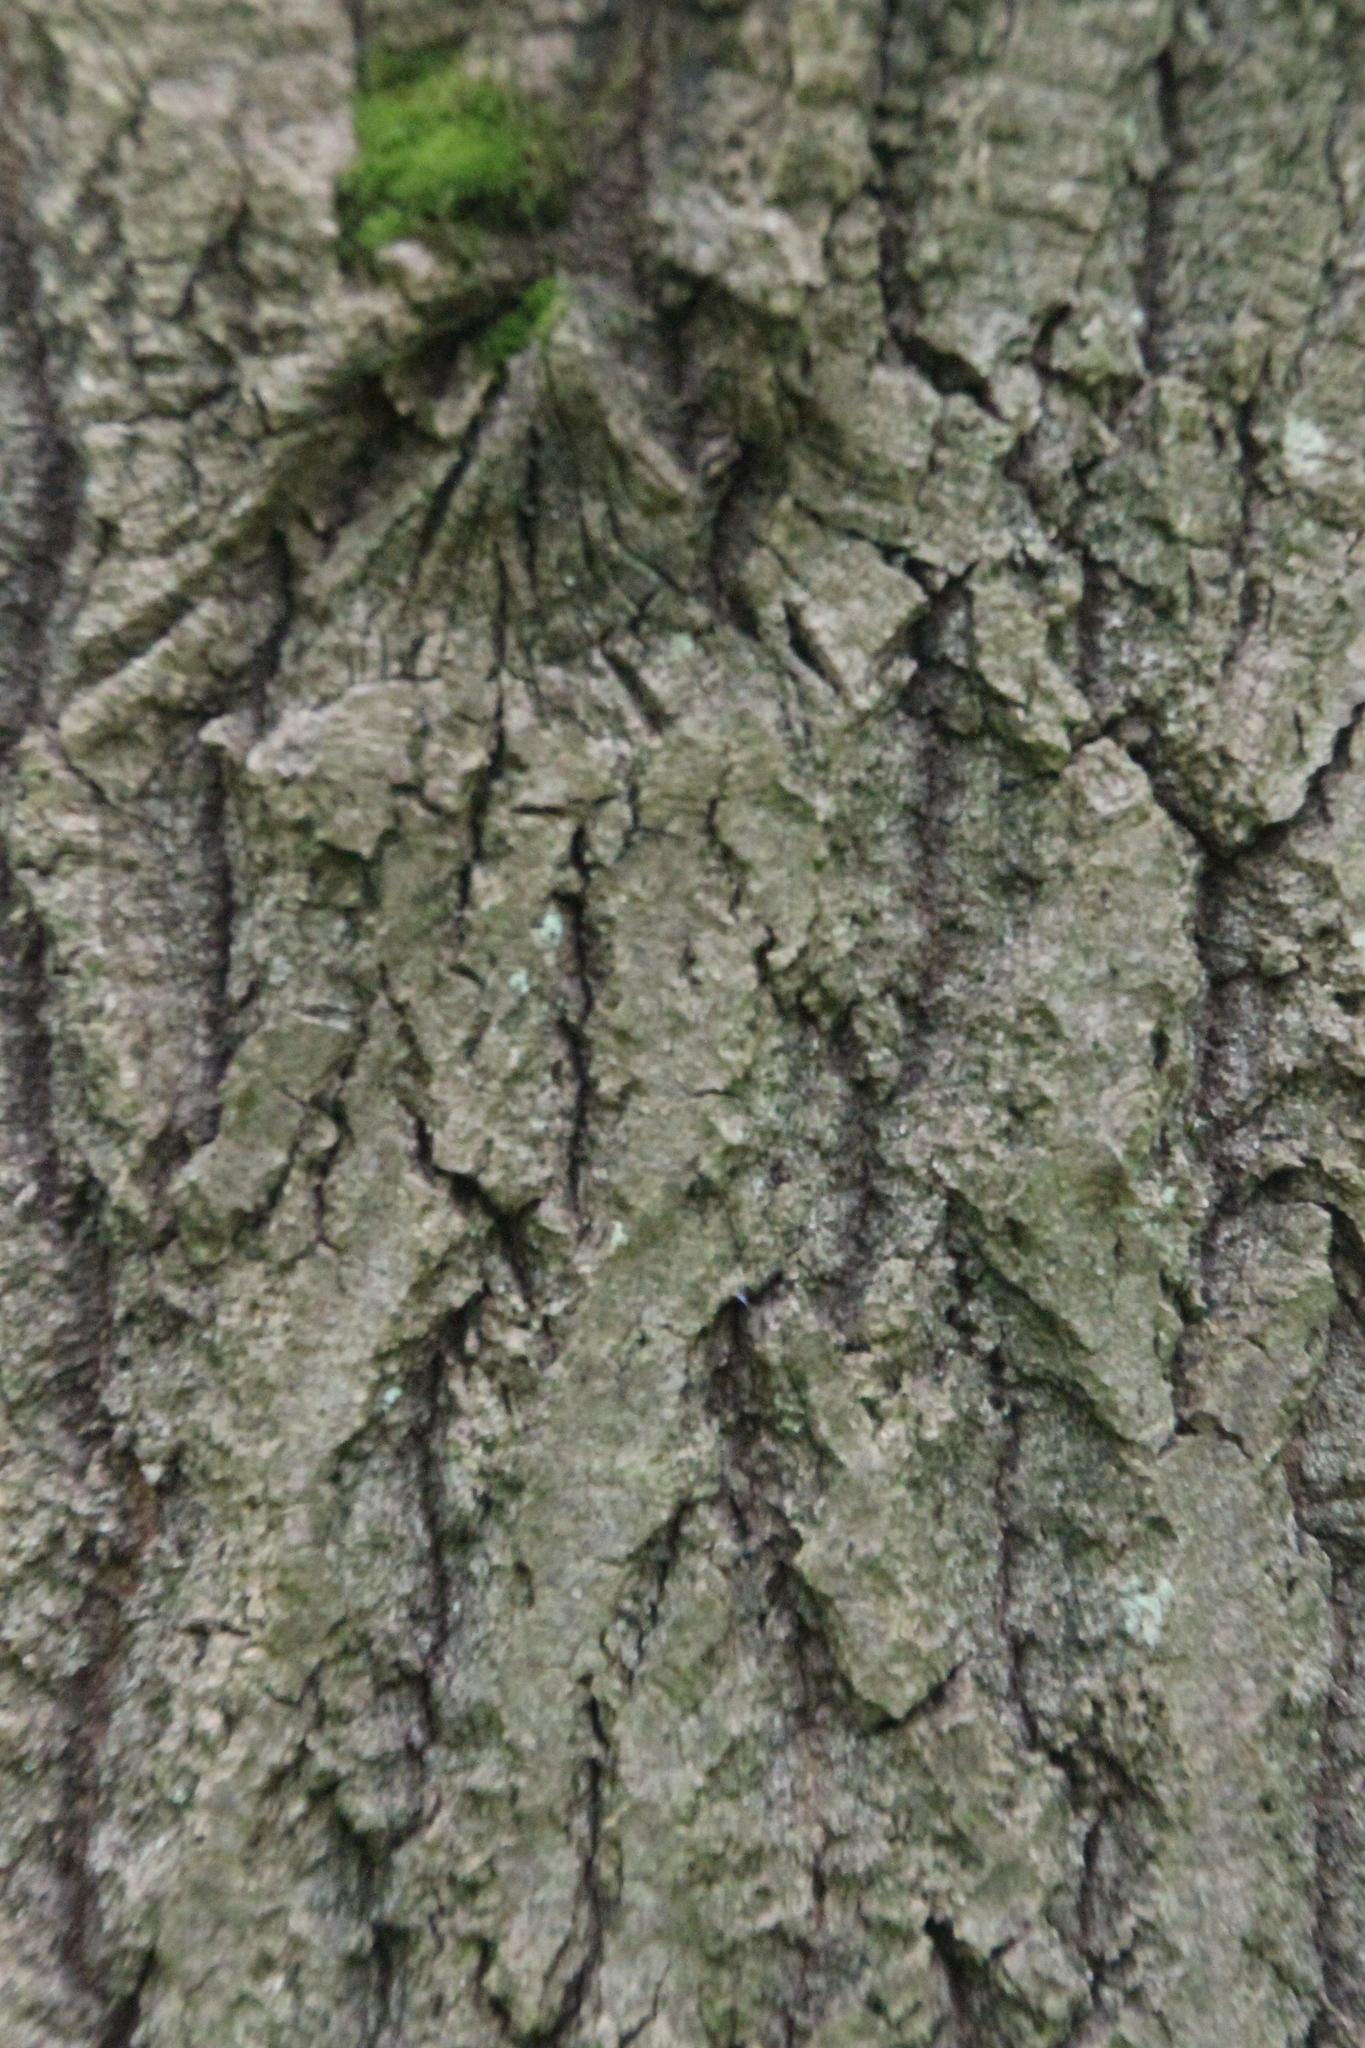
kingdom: Plantae
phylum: Tracheophyta
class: Magnoliopsida
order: Malpighiales
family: Salicaceae
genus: Populus
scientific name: Populus tremula
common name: European aspen
